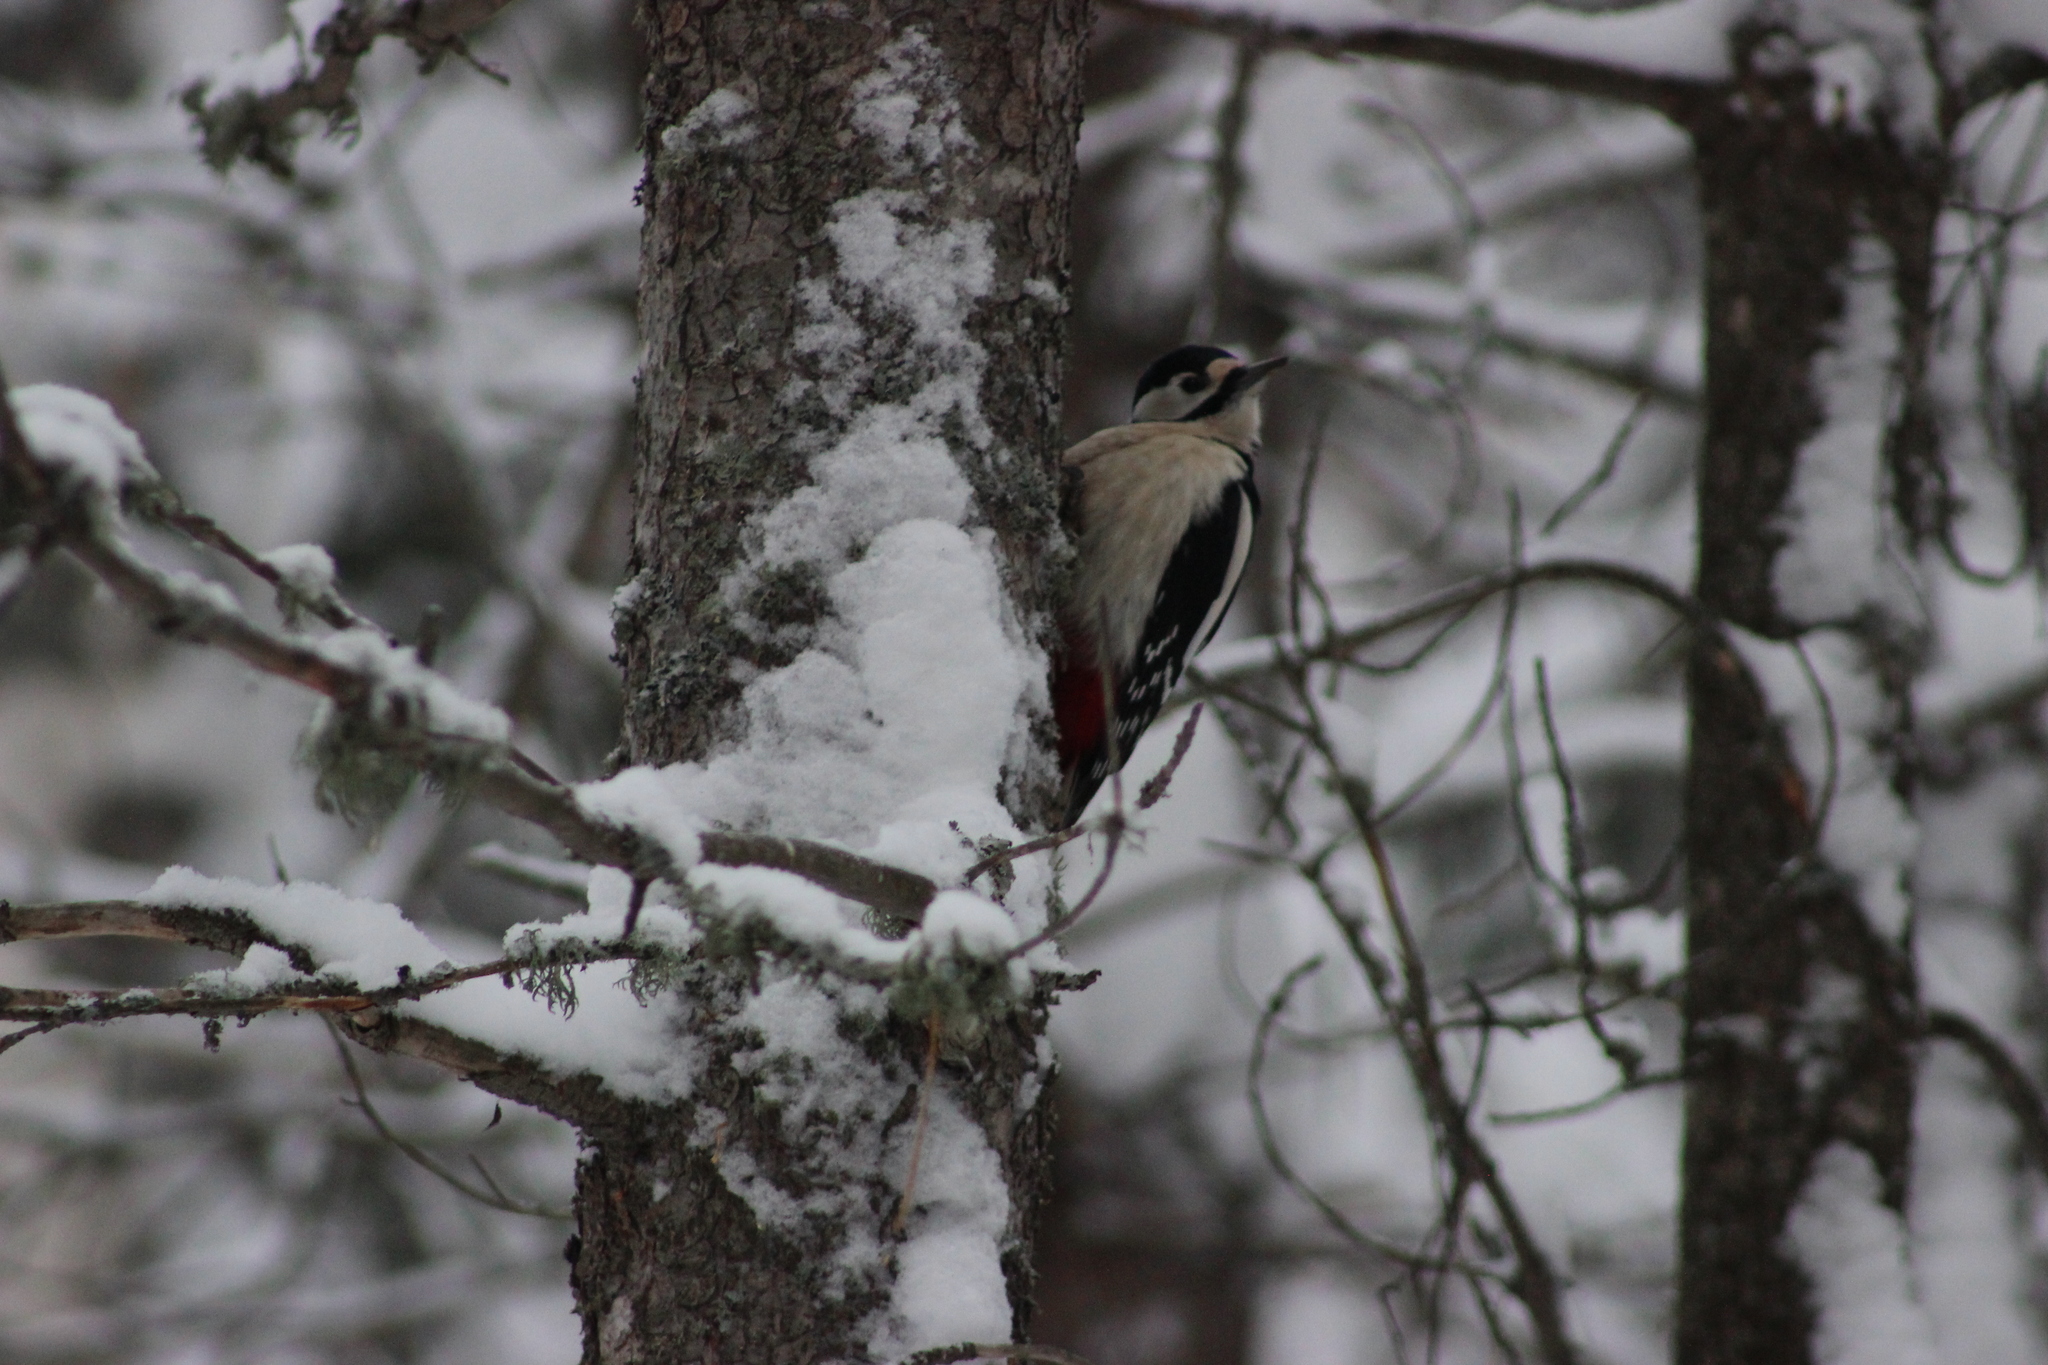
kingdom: Animalia
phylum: Chordata
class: Aves
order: Piciformes
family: Picidae
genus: Dendrocopos
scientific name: Dendrocopos major
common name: Great spotted woodpecker
